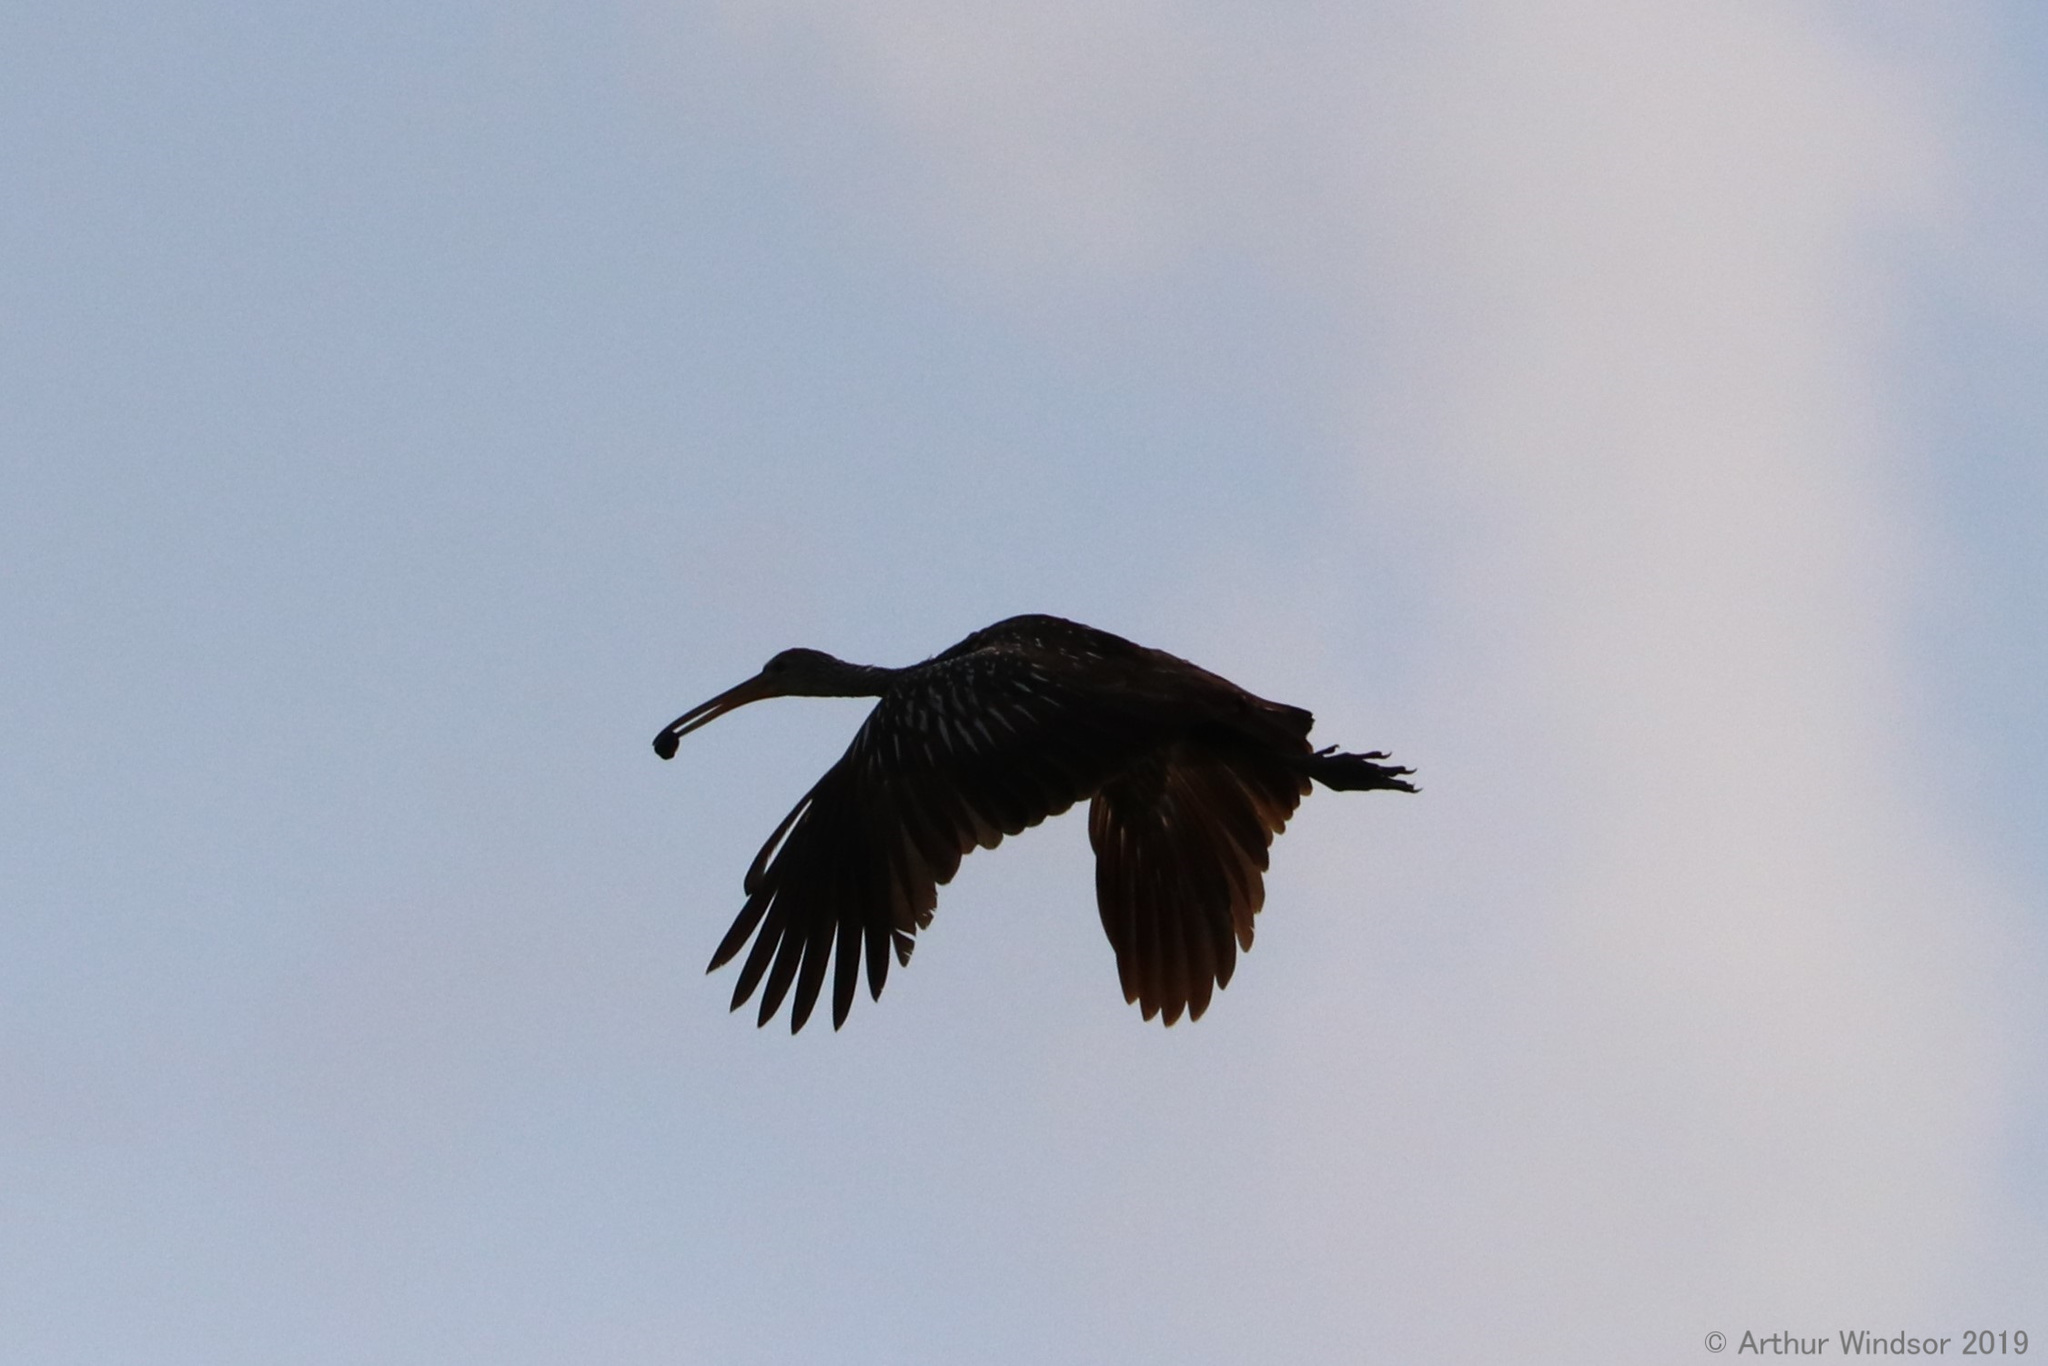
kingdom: Animalia
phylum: Chordata
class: Aves
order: Gruiformes
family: Aramidae
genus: Aramus
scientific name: Aramus guarauna
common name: Limpkin
